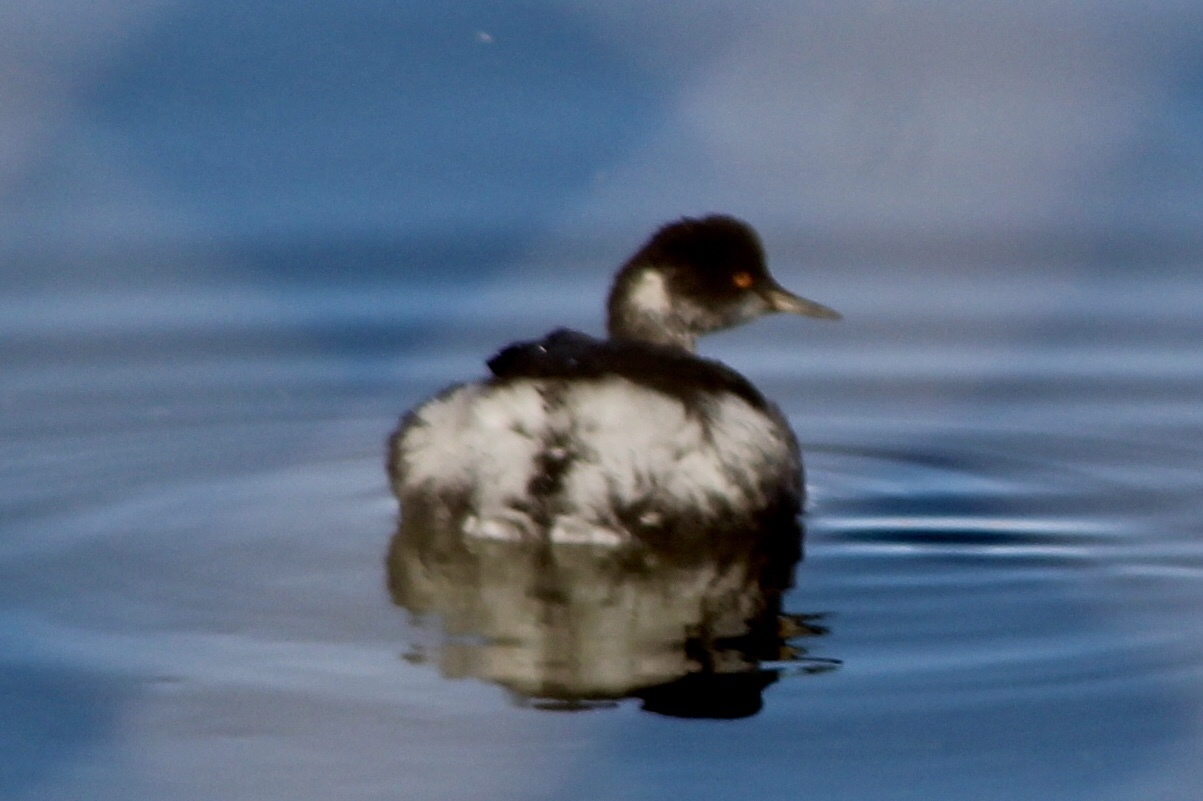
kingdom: Animalia
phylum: Chordata
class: Aves
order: Podicipediformes
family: Podicipedidae
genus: Podiceps
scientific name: Podiceps nigricollis
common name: Black-necked grebe
